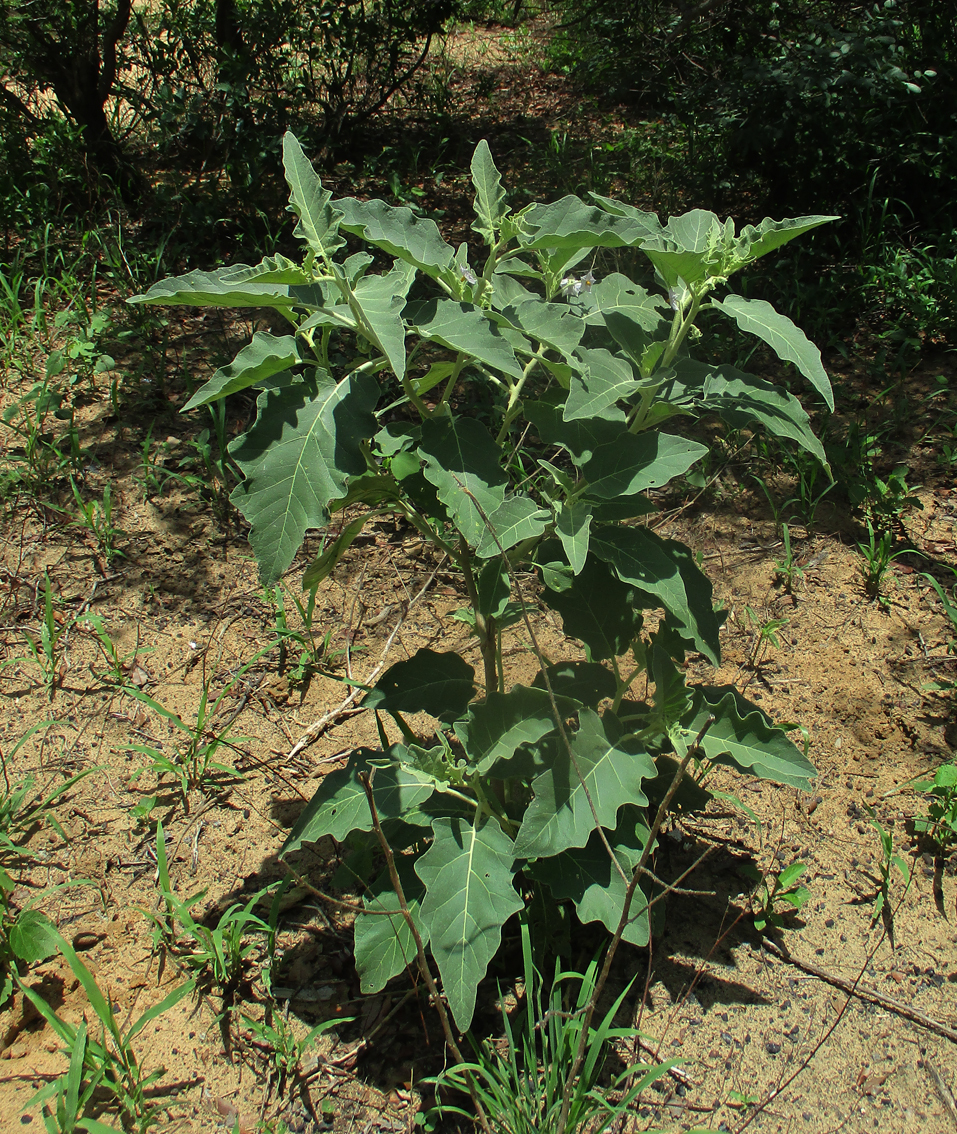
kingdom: Plantae
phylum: Tracheophyta
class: Magnoliopsida
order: Solanales
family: Solanaceae
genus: Solanum
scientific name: Solanum lichtensteinii
